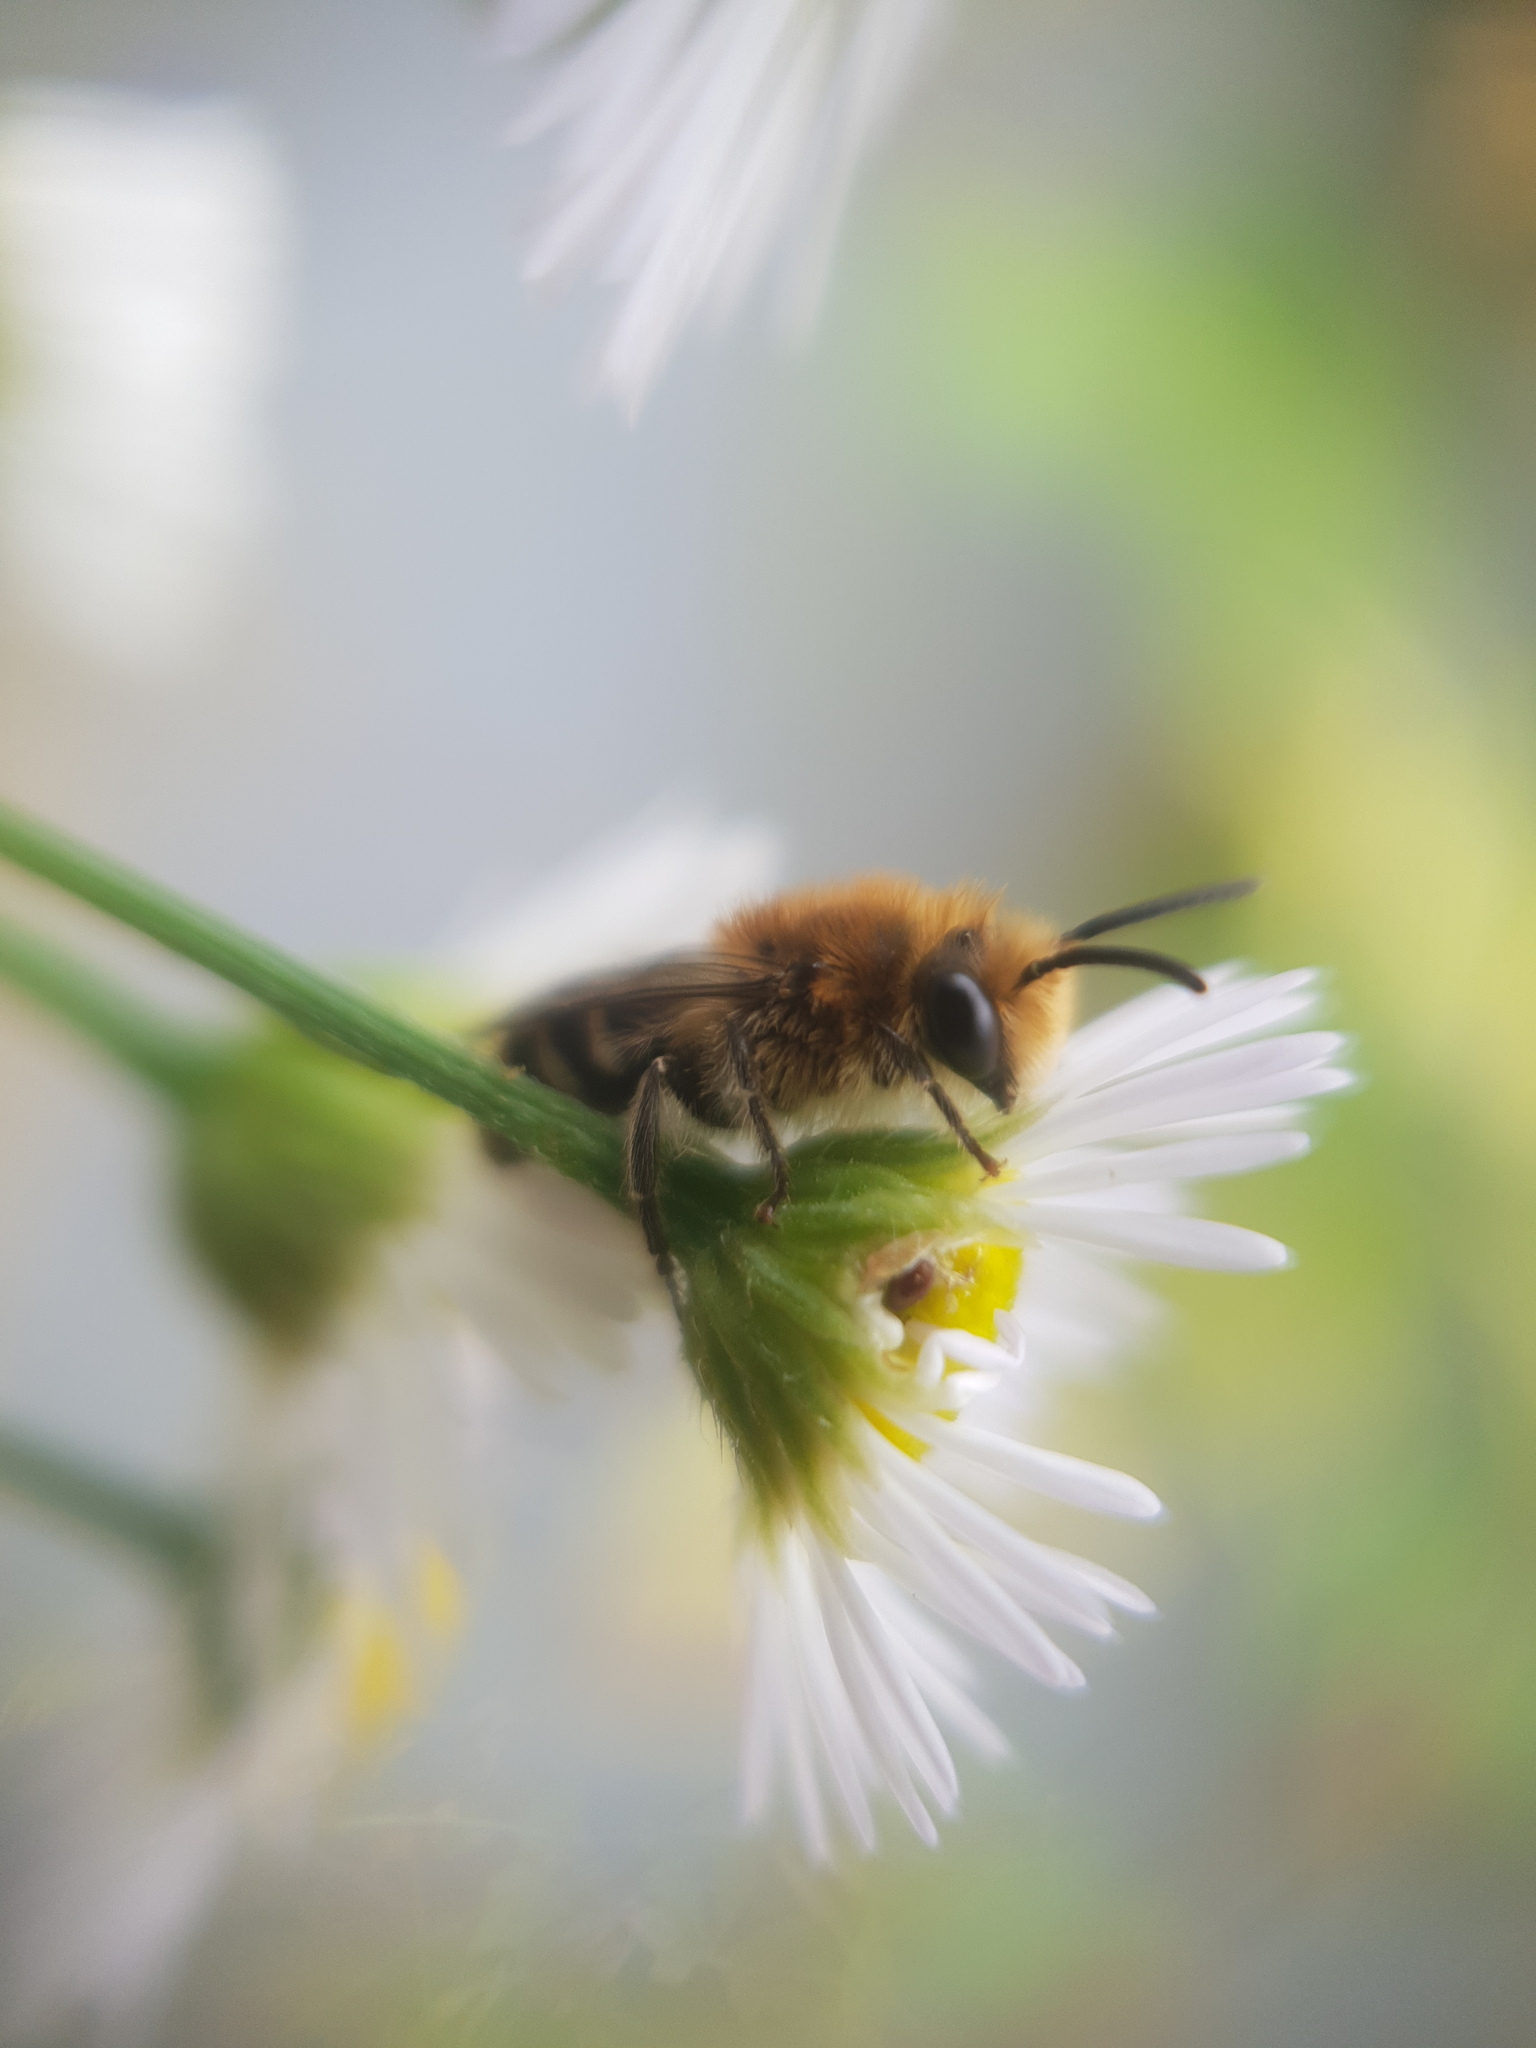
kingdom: Animalia
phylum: Arthropoda
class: Insecta
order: Hymenoptera
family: Colletidae
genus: Colletes
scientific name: Colletes
